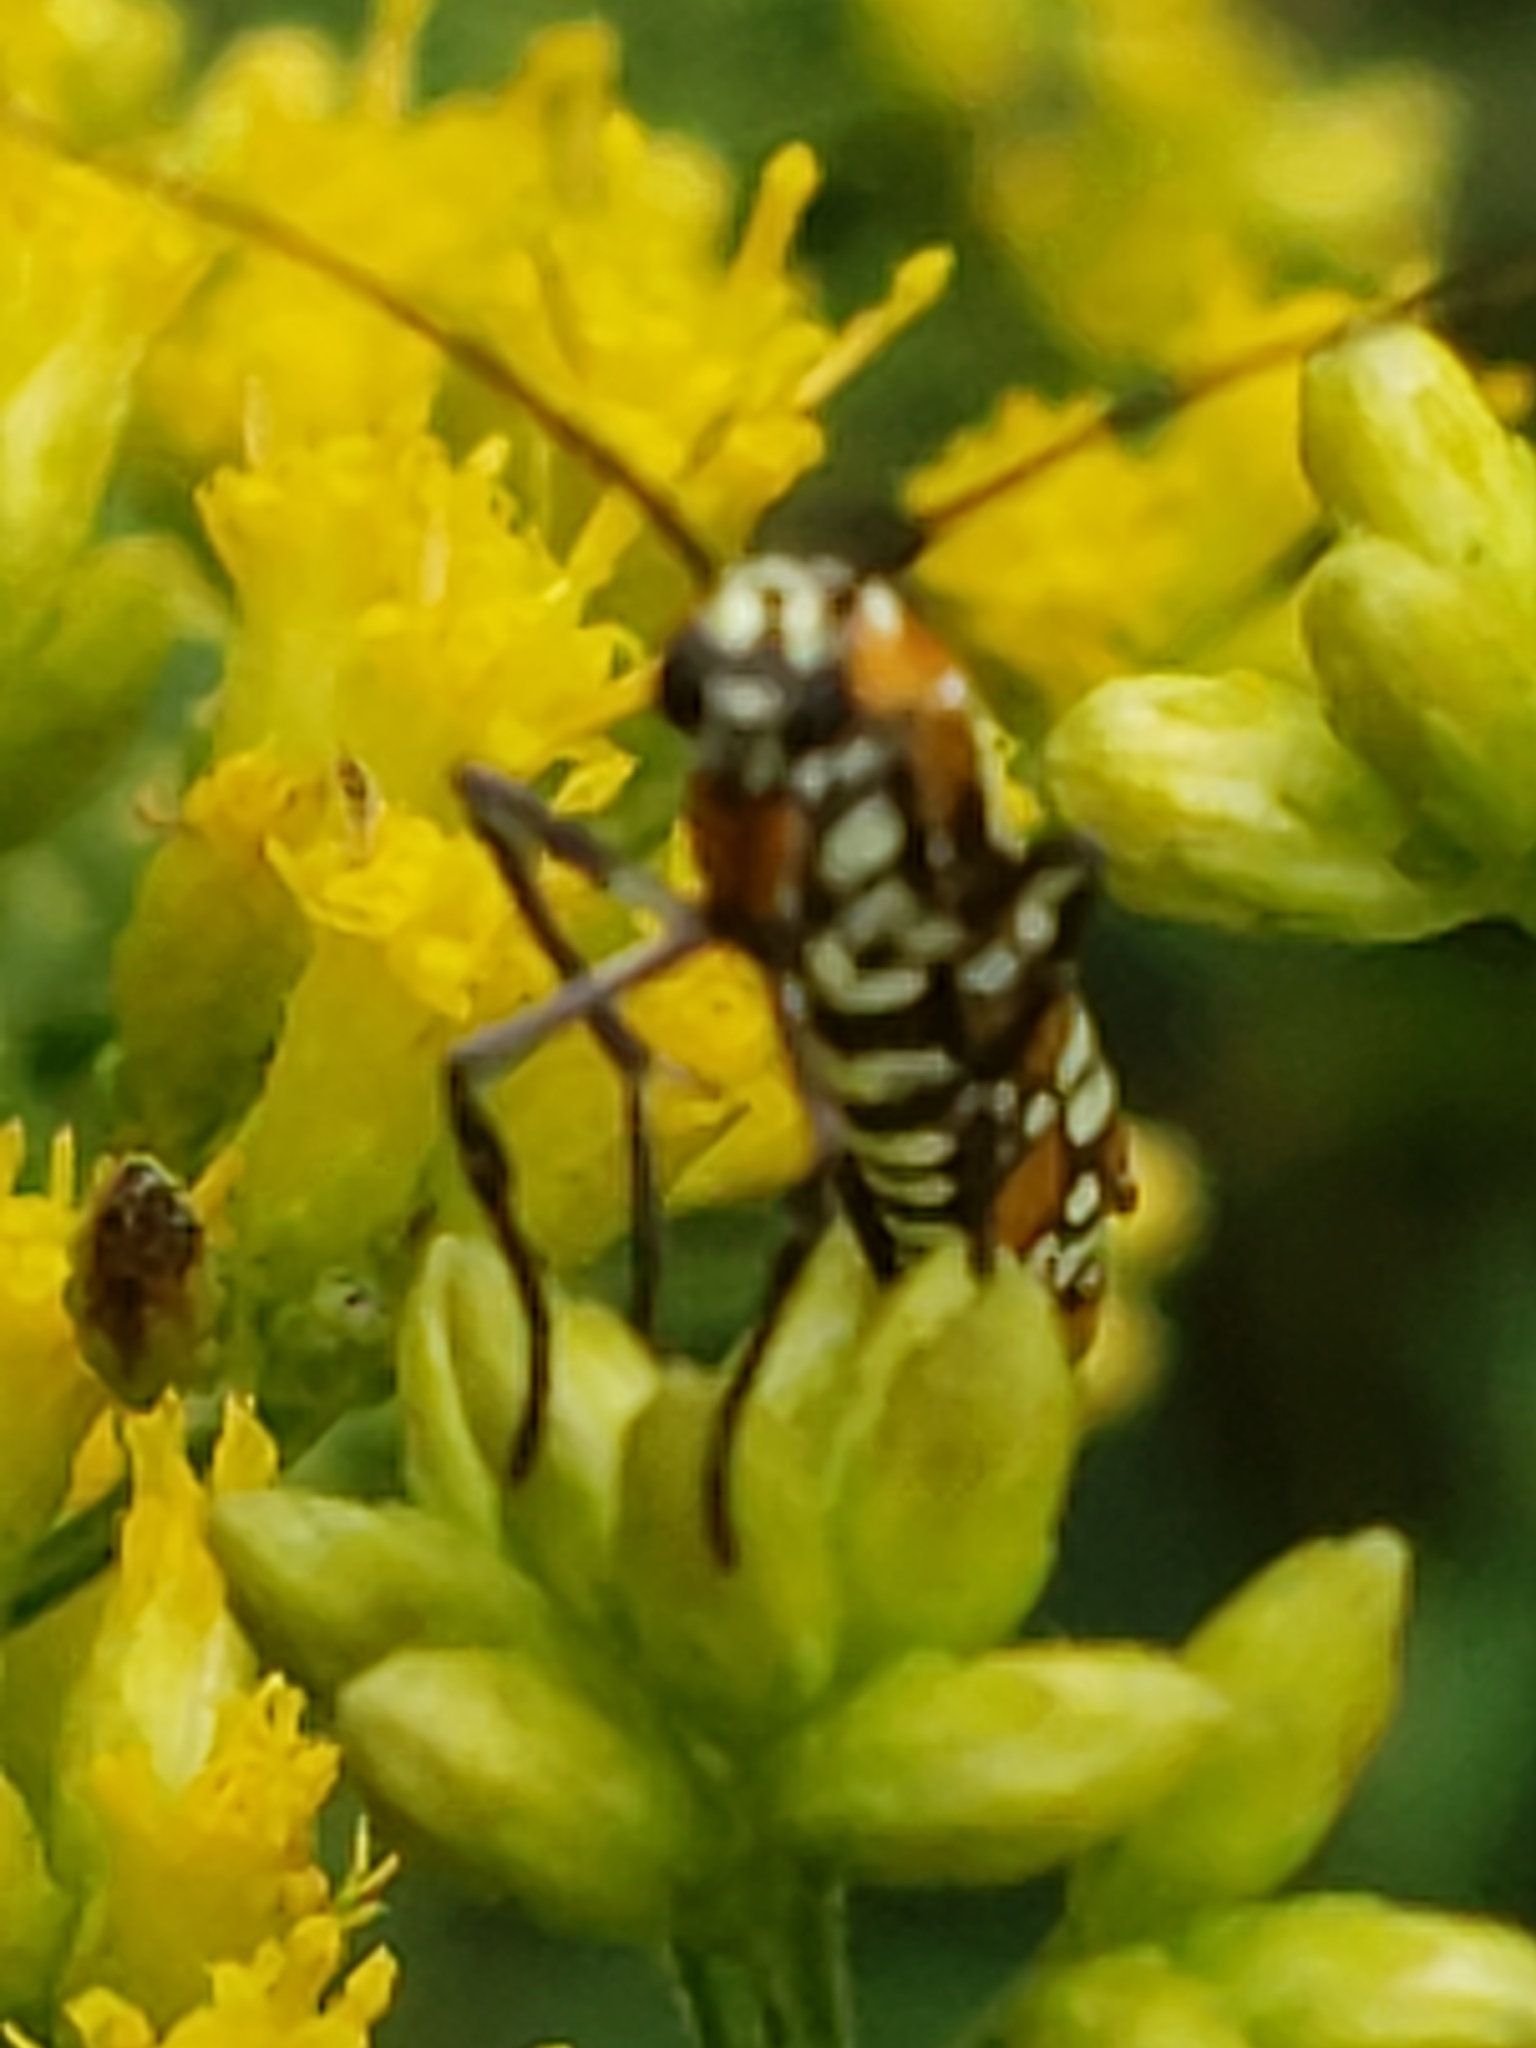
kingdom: Animalia
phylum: Arthropoda
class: Insecta
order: Lepidoptera
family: Attevidae
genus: Atteva
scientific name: Atteva punctella
